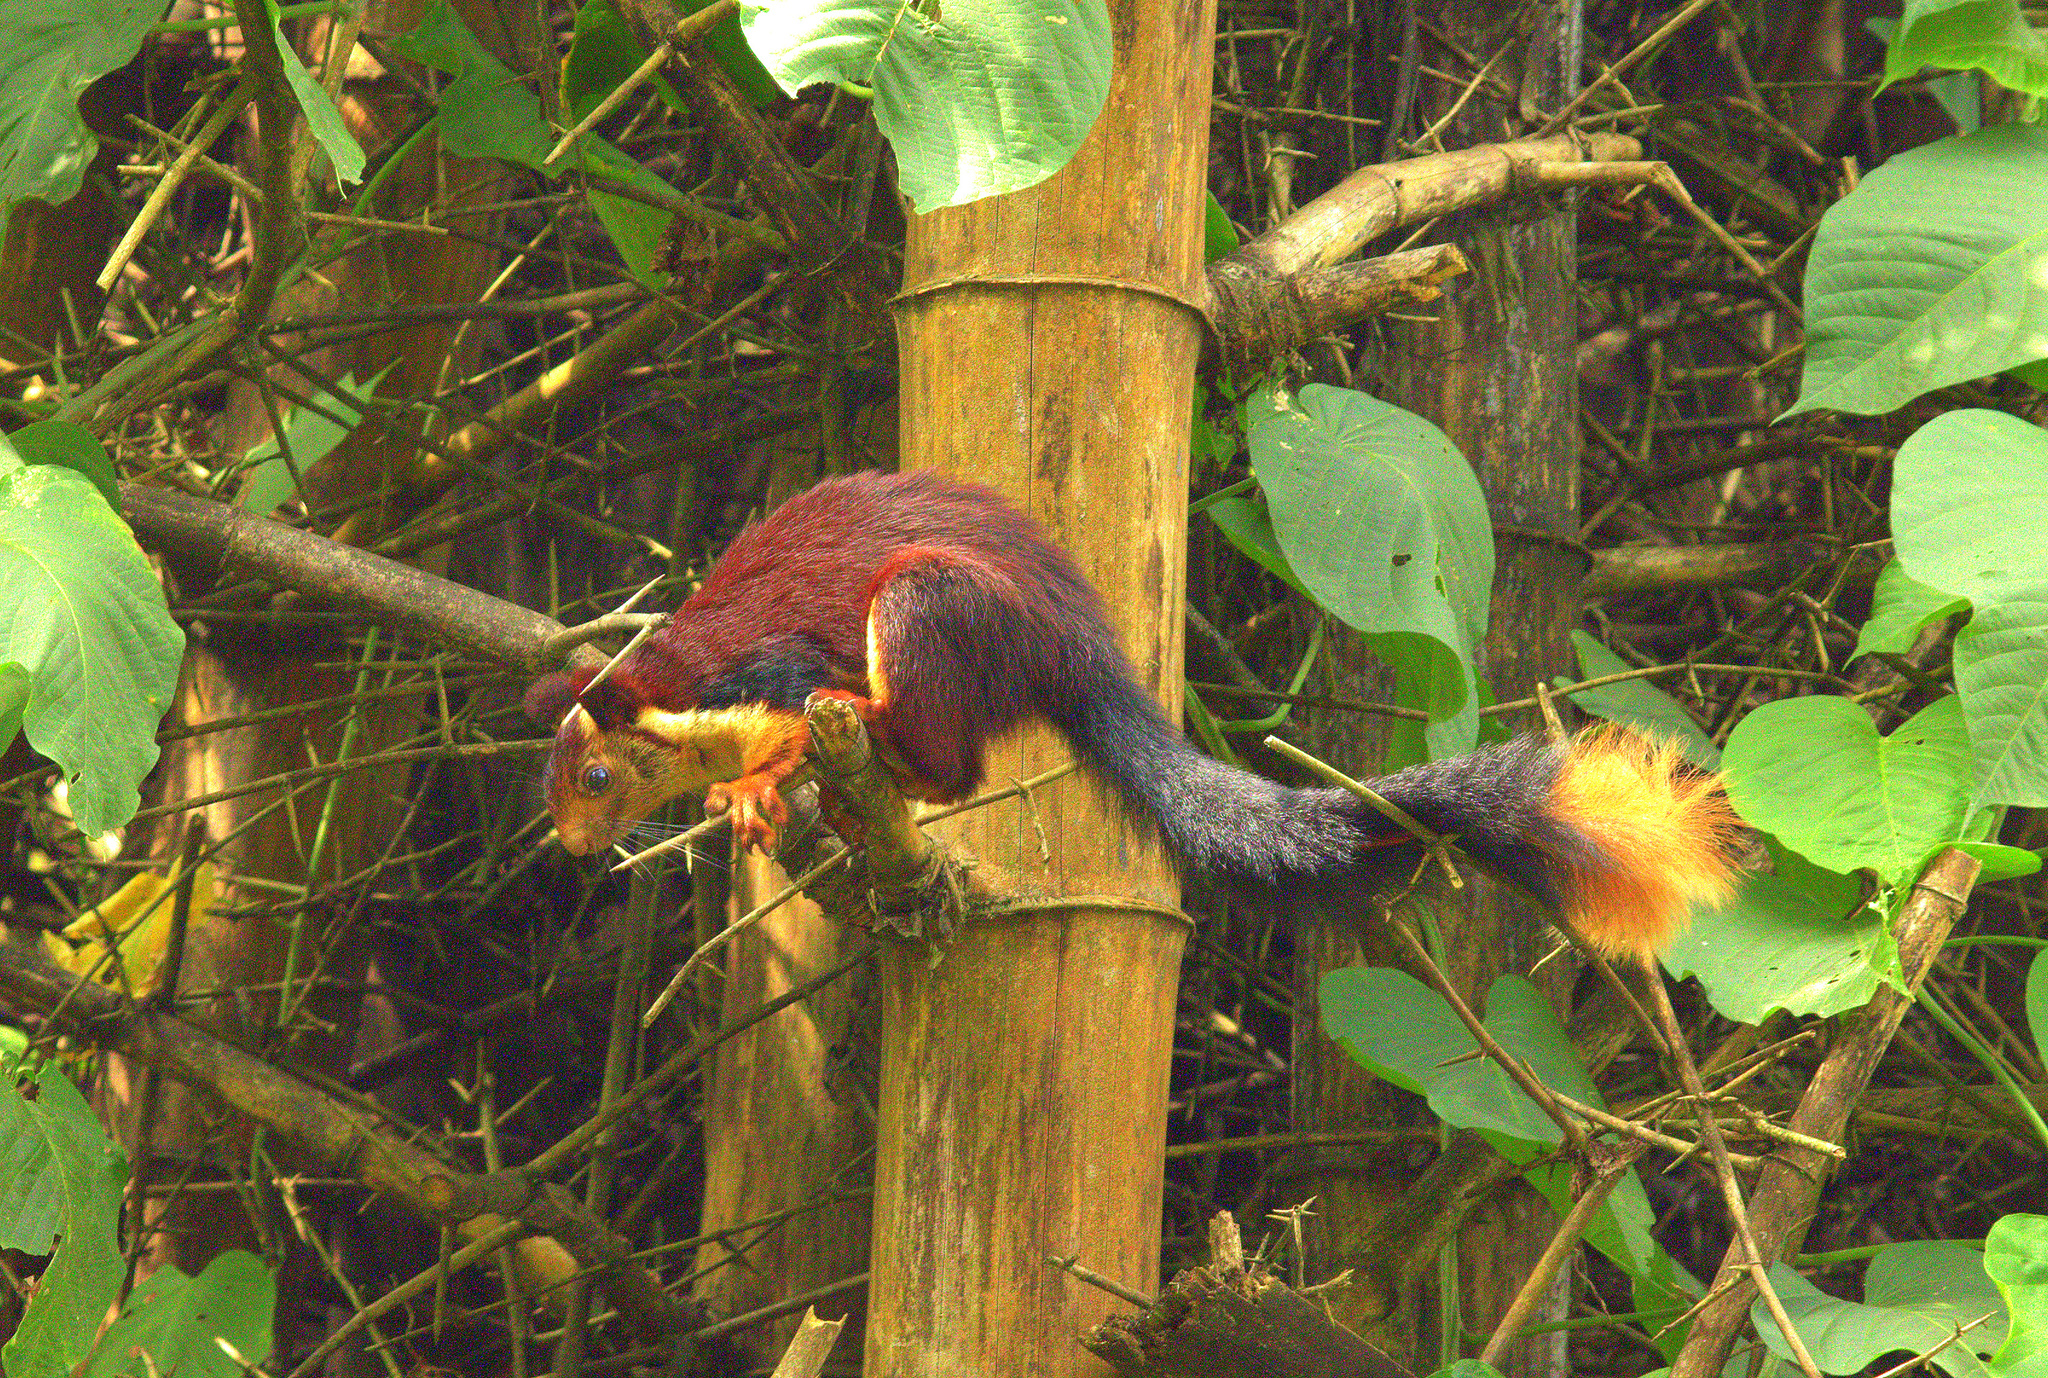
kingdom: Animalia
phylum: Chordata
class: Mammalia
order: Rodentia
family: Sciuridae
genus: Ratufa
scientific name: Ratufa indica
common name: Indian giant squirrel
